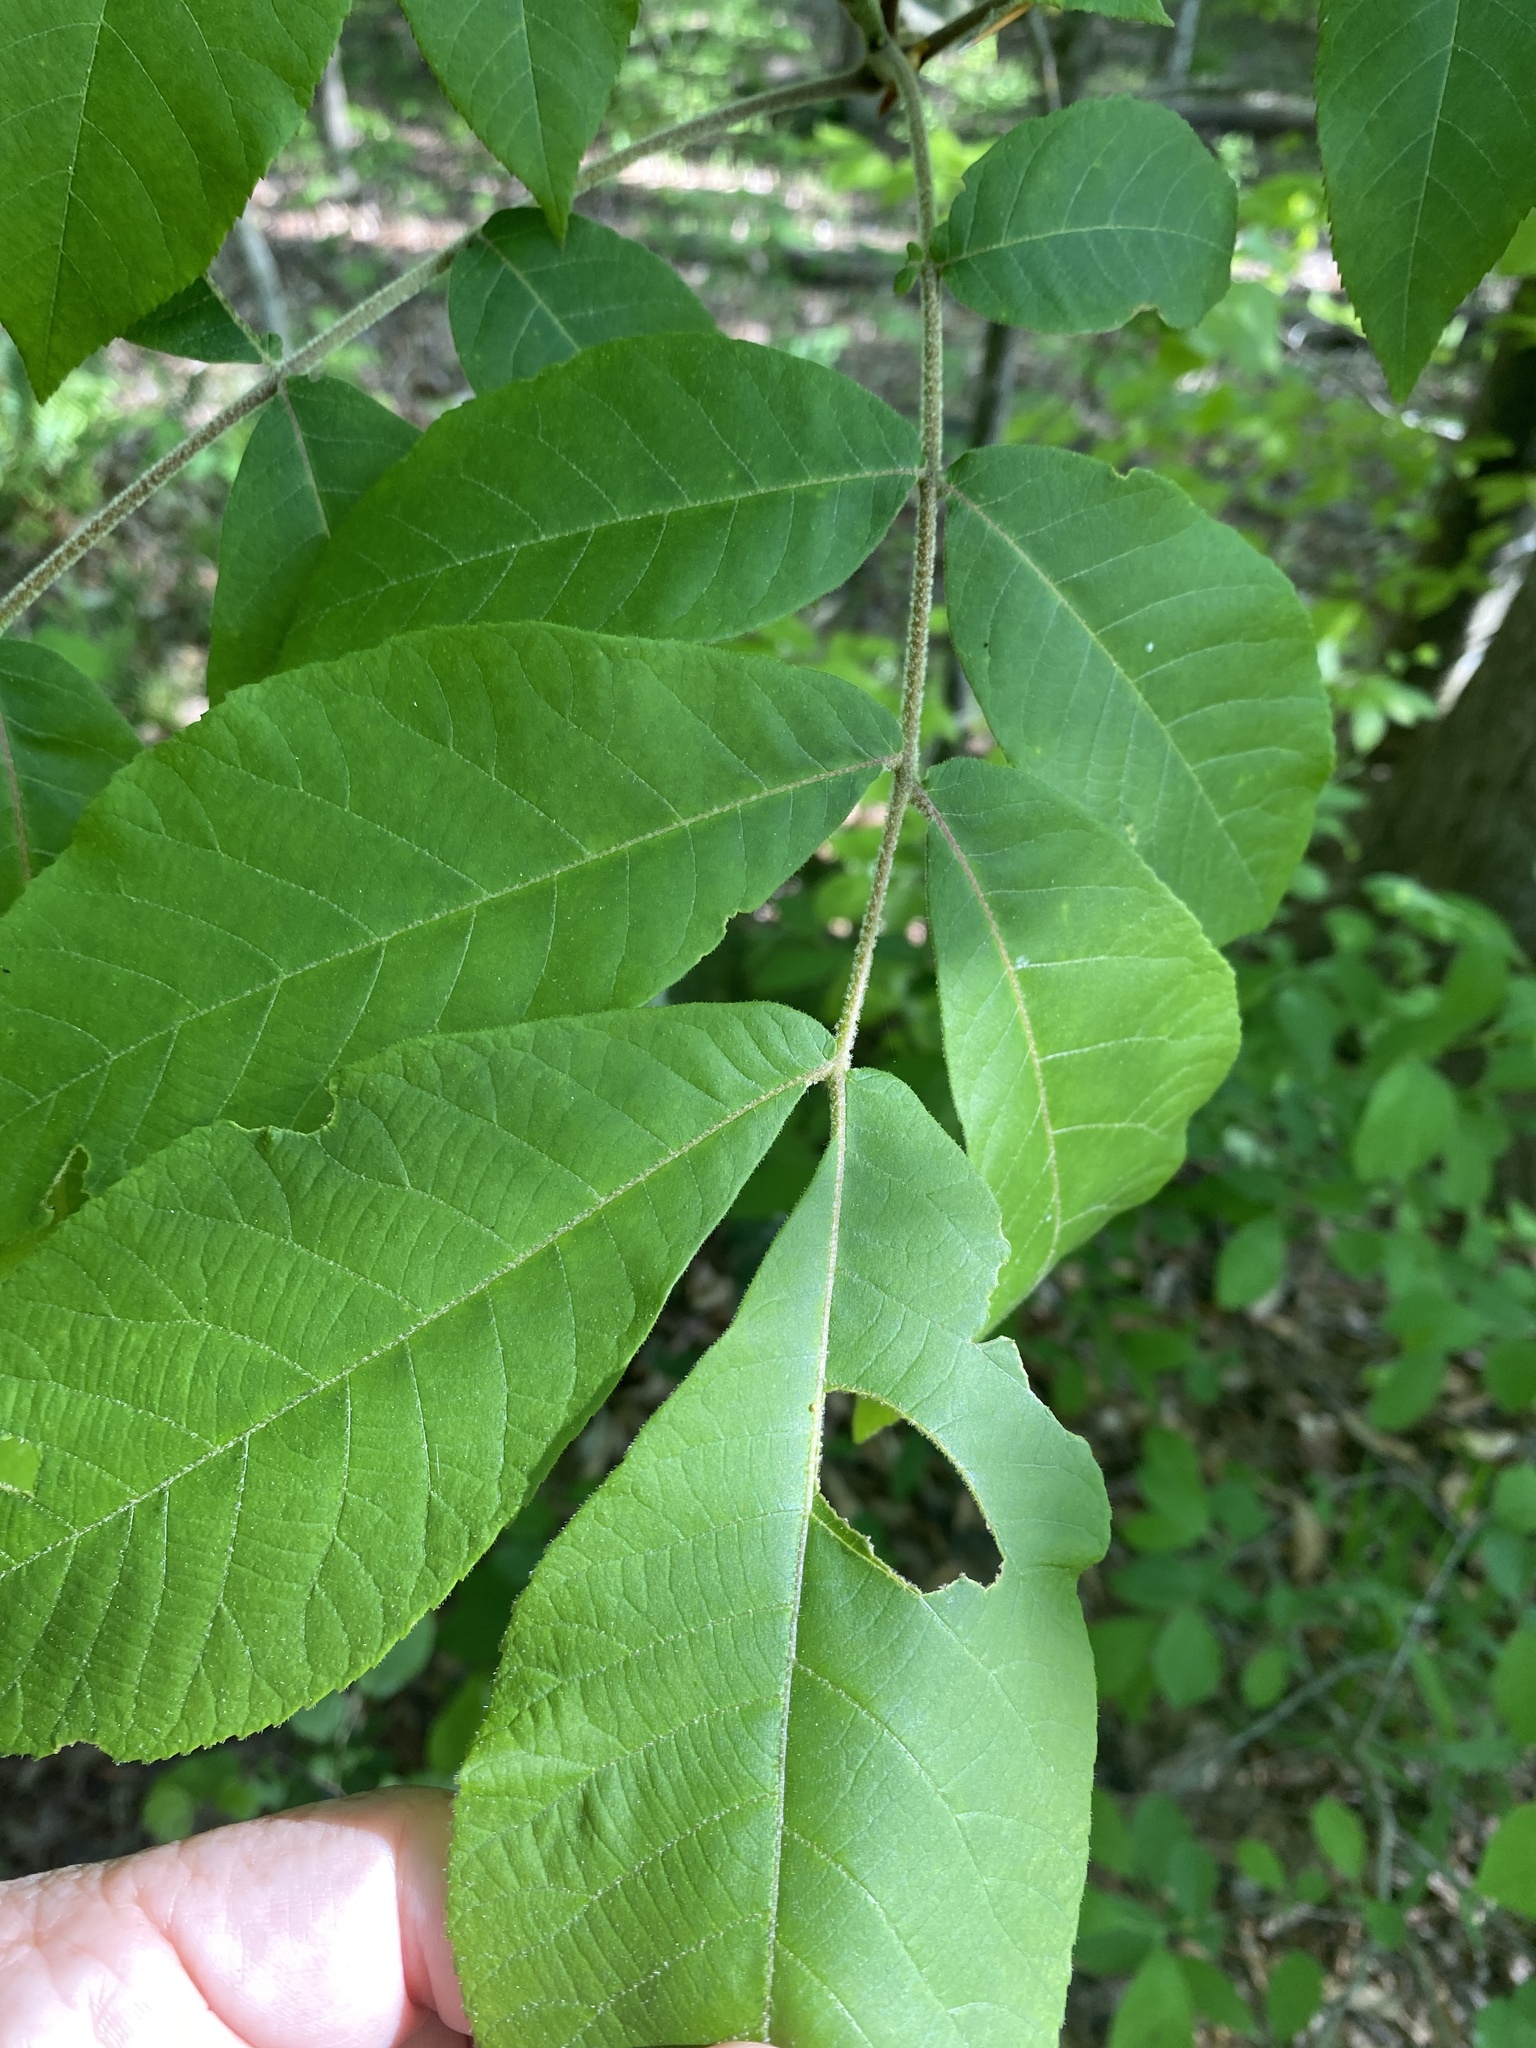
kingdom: Plantae
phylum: Tracheophyta
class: Magnoliopsida
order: Fagales
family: Juglandaceae
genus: Carya
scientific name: Carya alba
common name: Mockernut hickory
